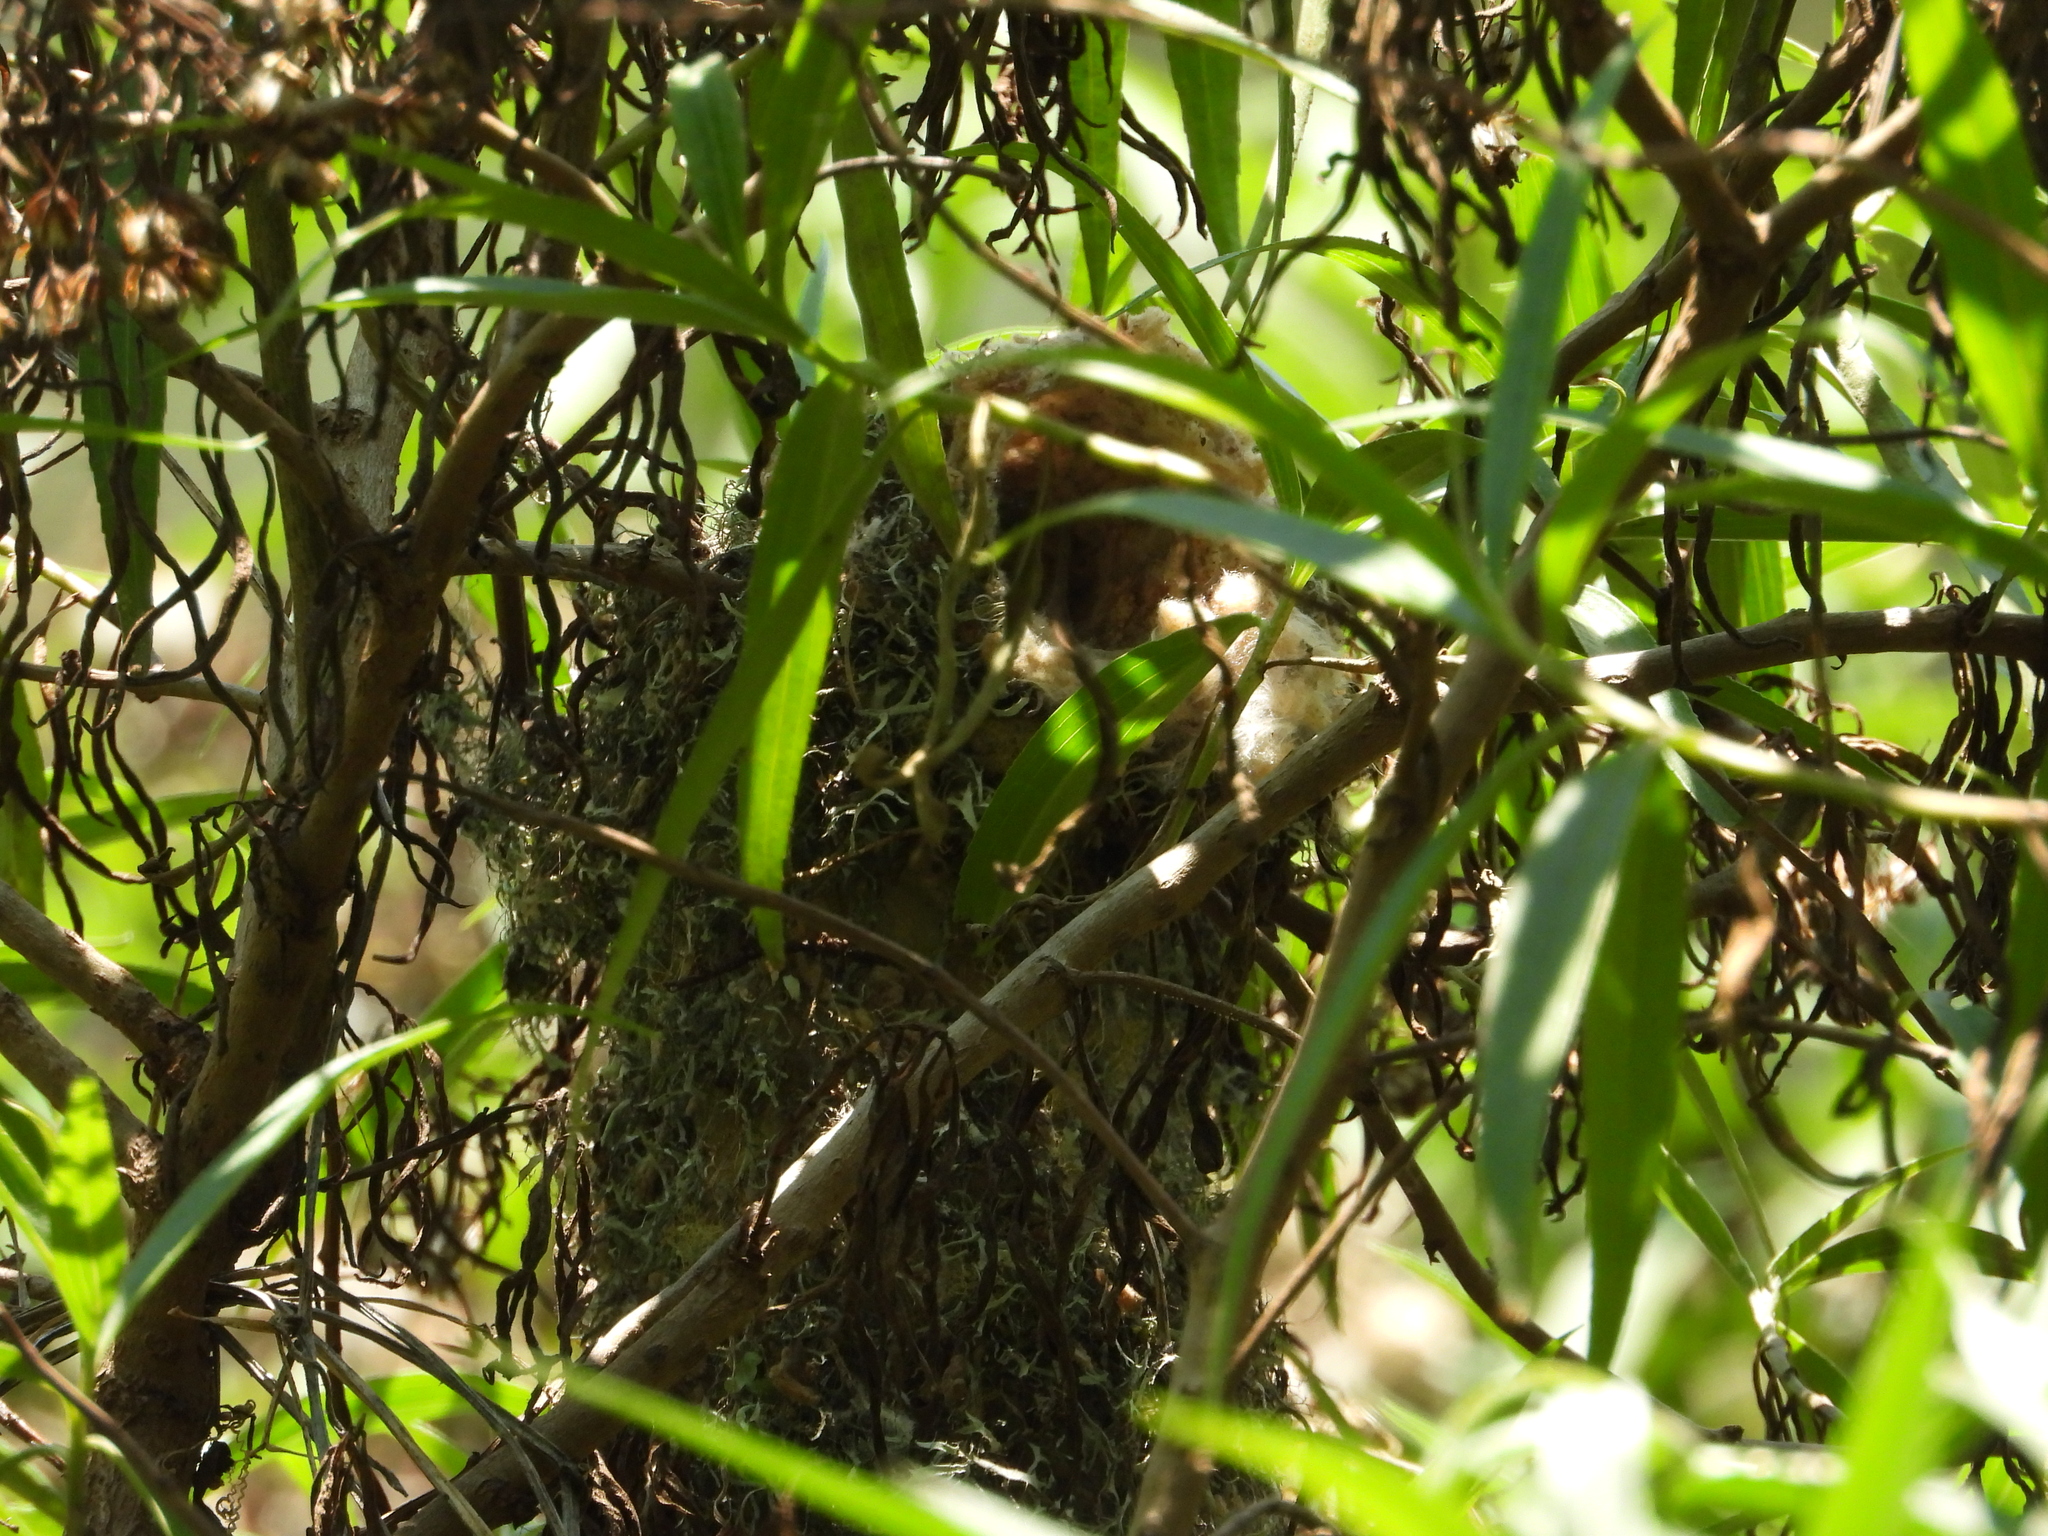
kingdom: Animalia
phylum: Chordata
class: Aves
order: Passeriformes
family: Aegithalidae
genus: Psaltriparus
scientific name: Psaltriparus minimus
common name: American bushtit
